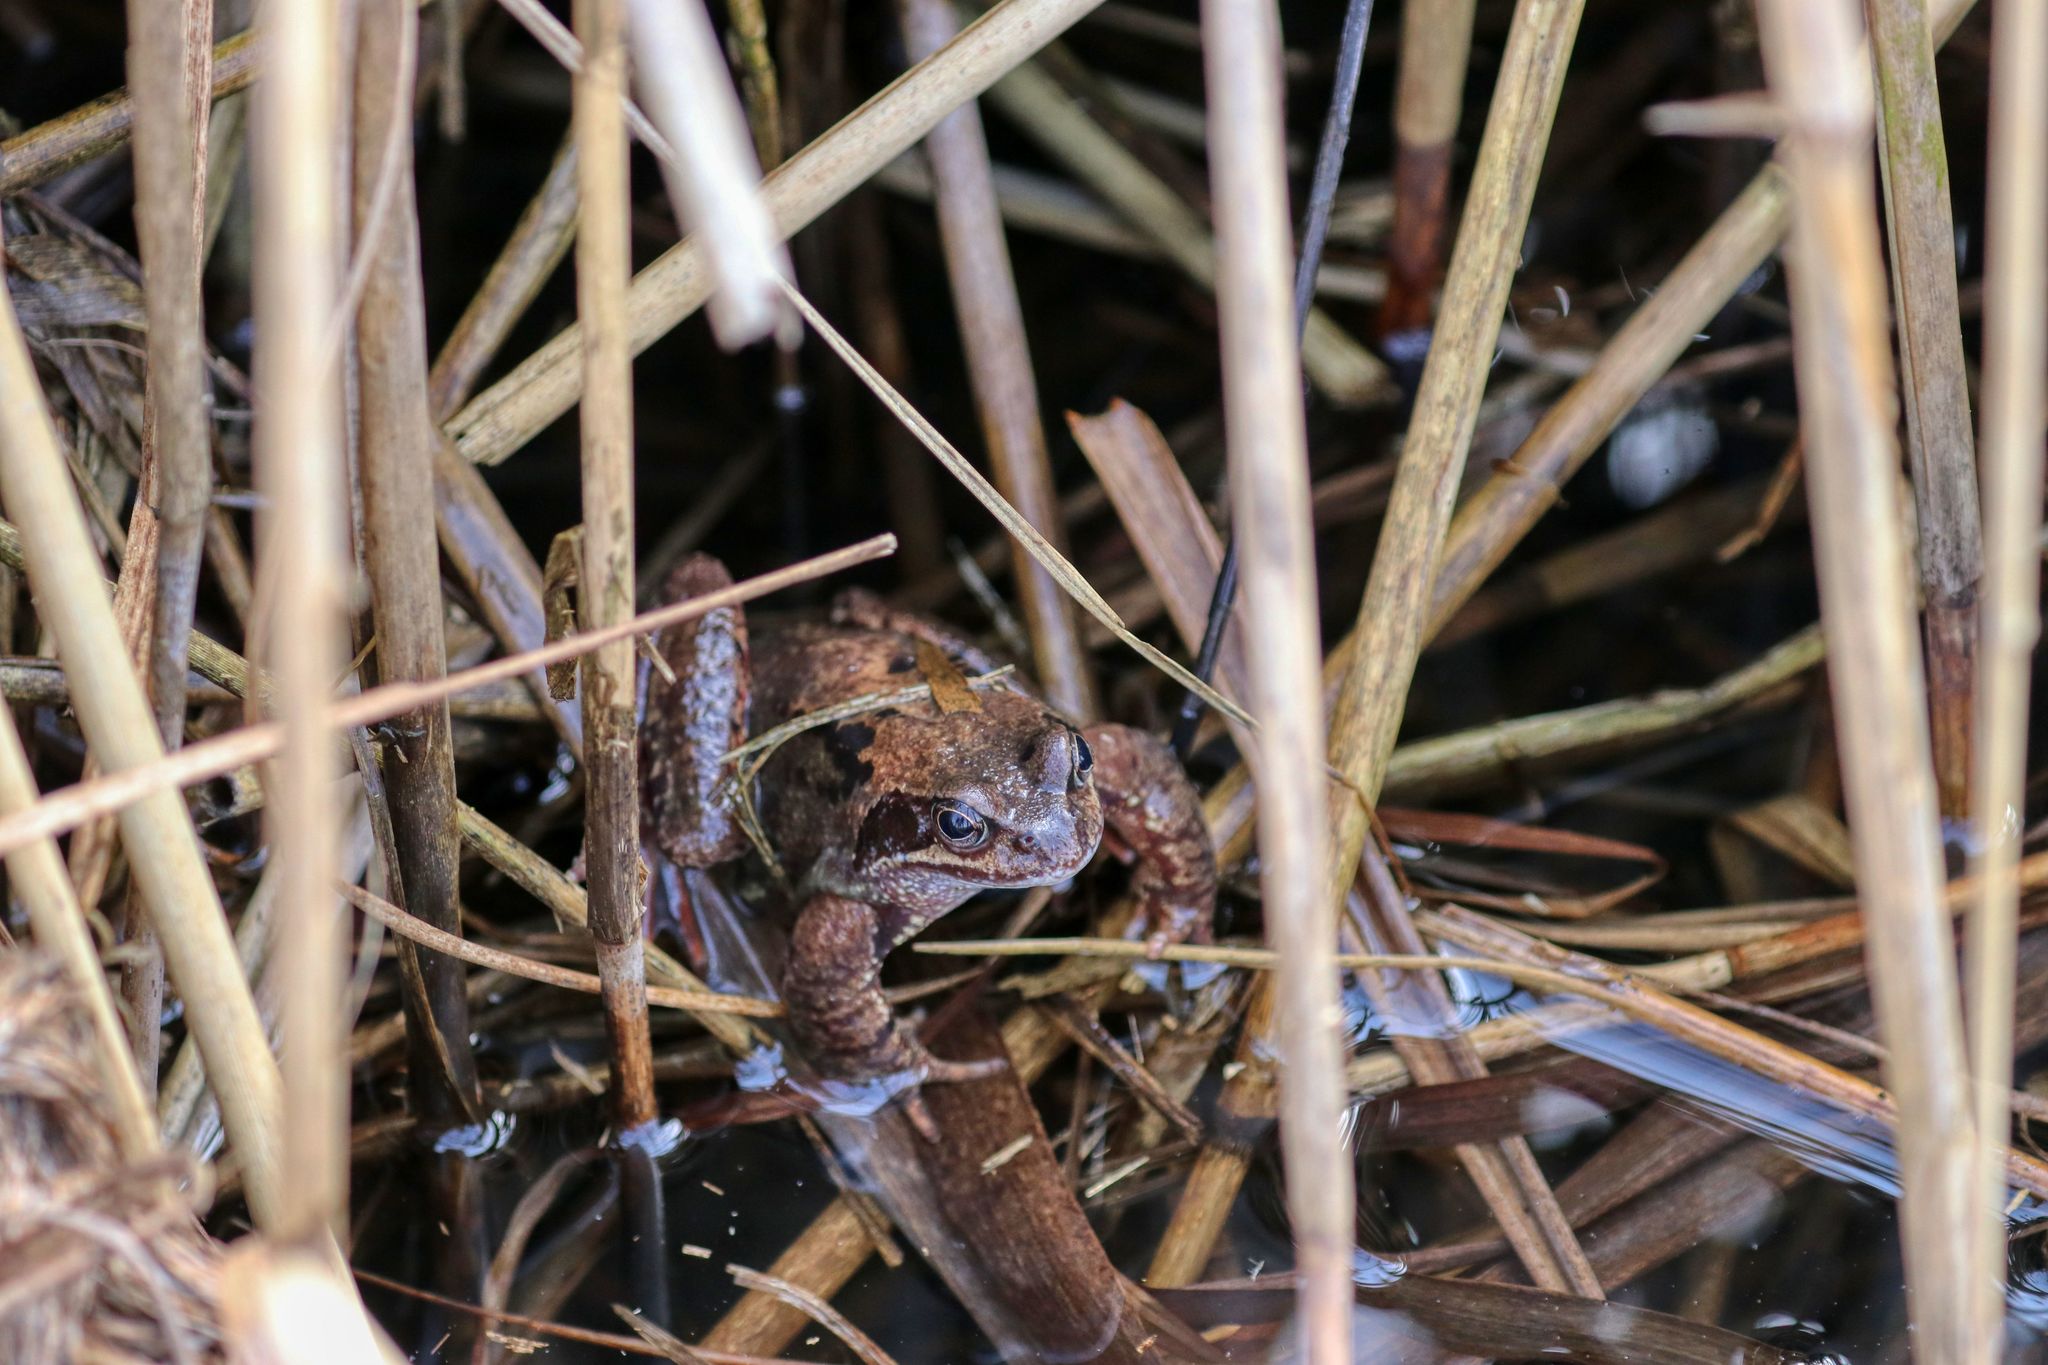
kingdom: Animalia
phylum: Chordata
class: Amphibia
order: Anura
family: Ranidae
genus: Rana
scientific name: Rana temporaria
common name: Common frog
